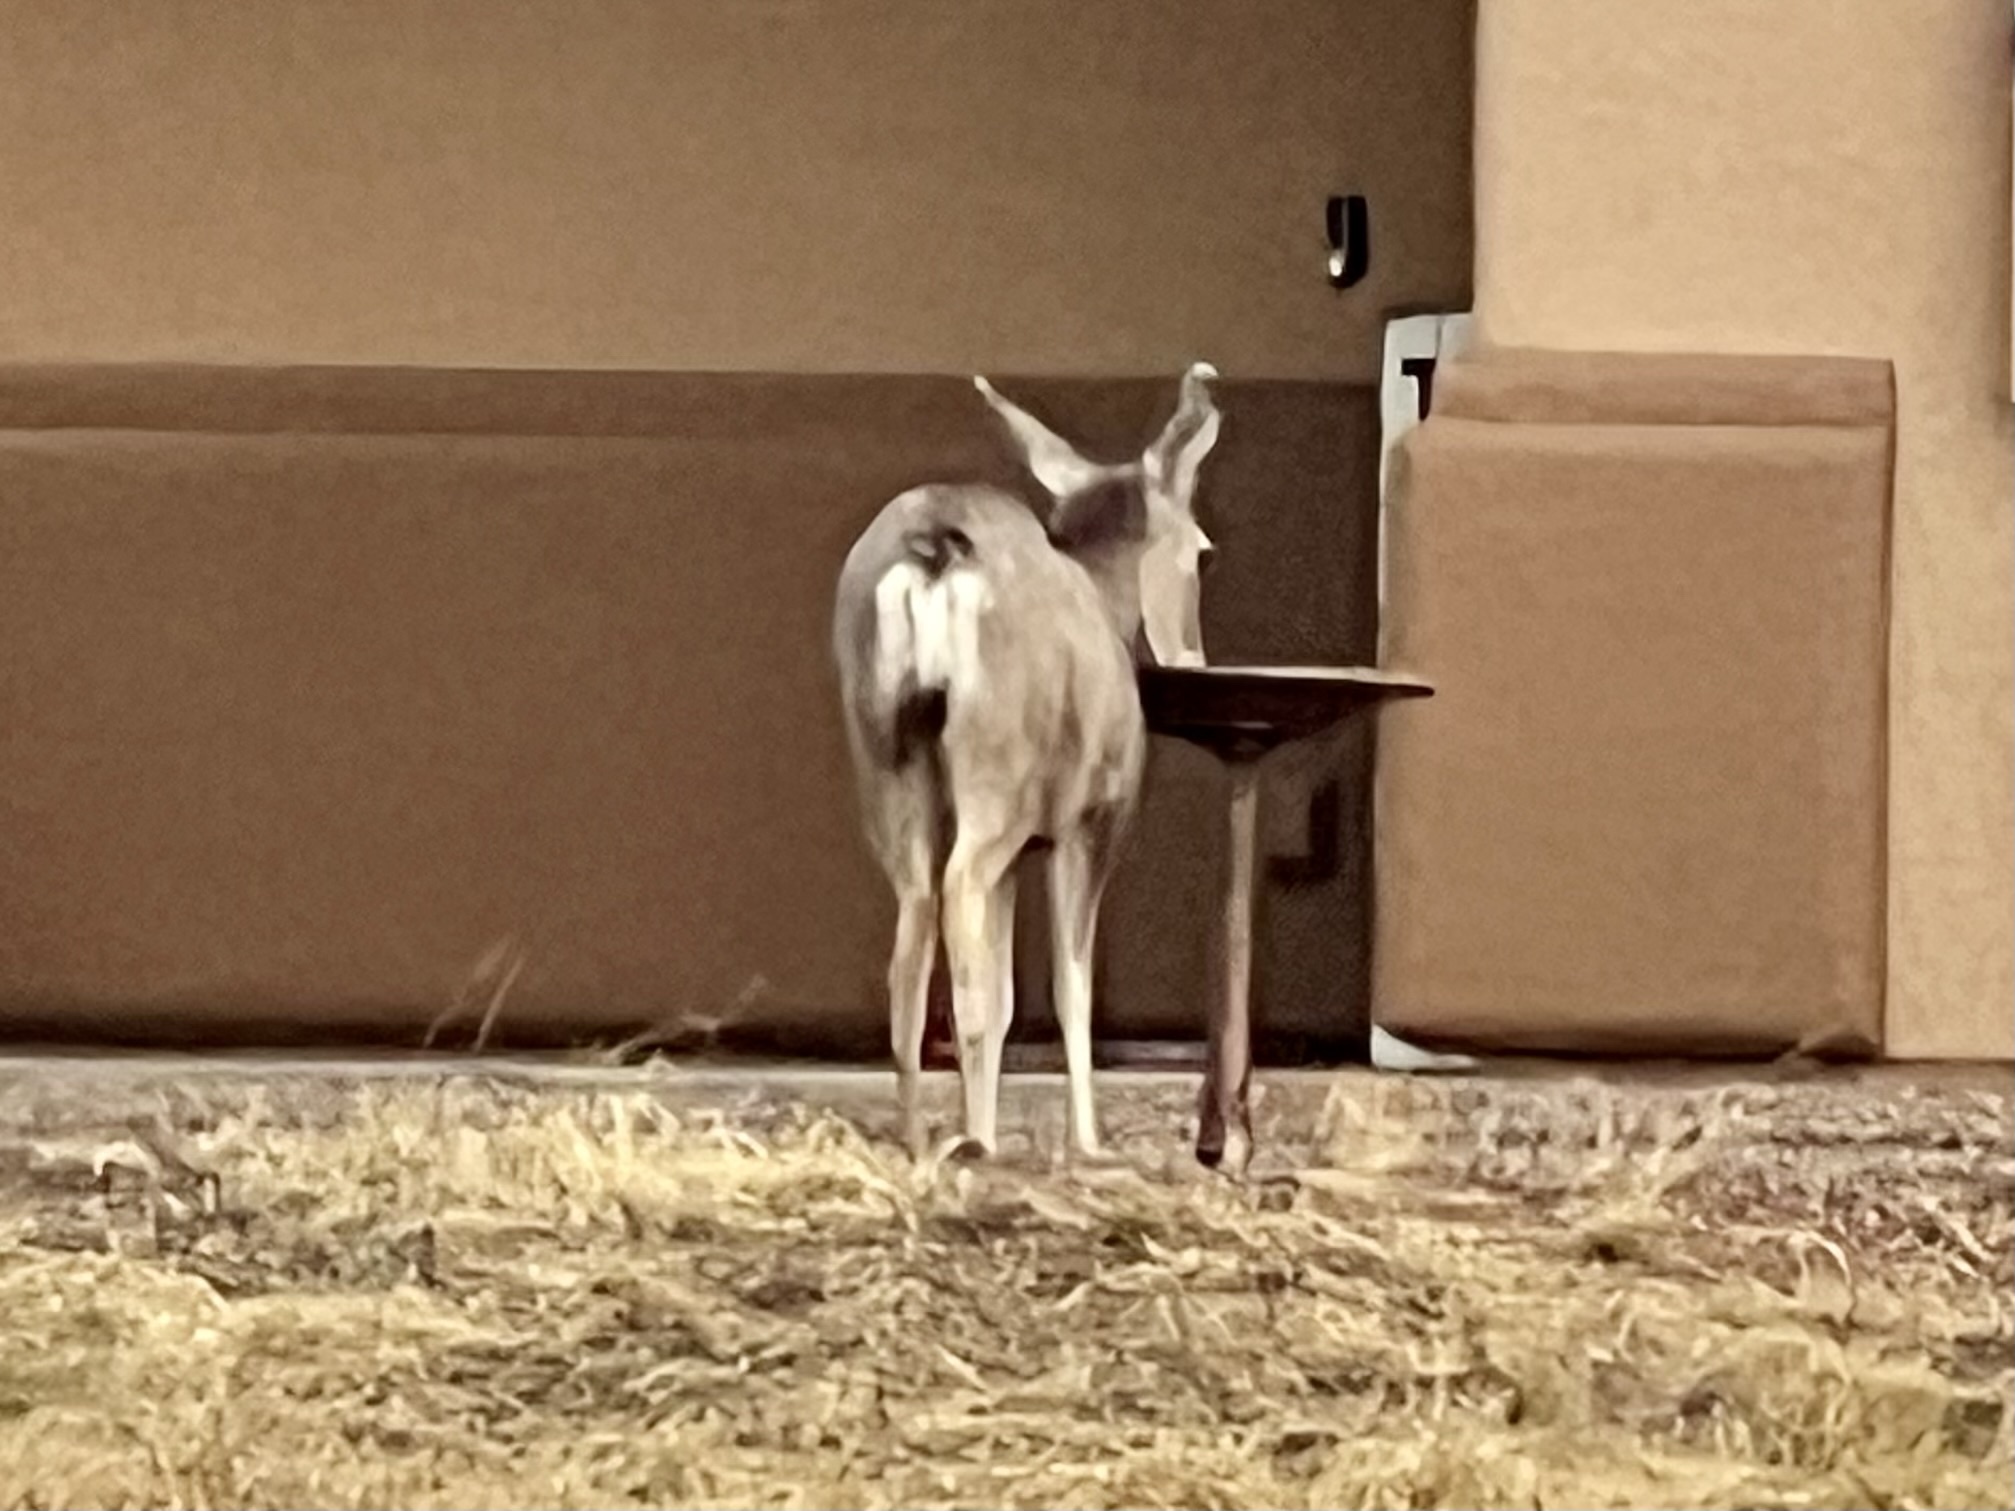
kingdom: Animalia
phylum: Chordata
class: Mammalia
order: Artiodactyla
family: Cervidae
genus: Odocoileus
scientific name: Odocoileus hemionus
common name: Mule deer
